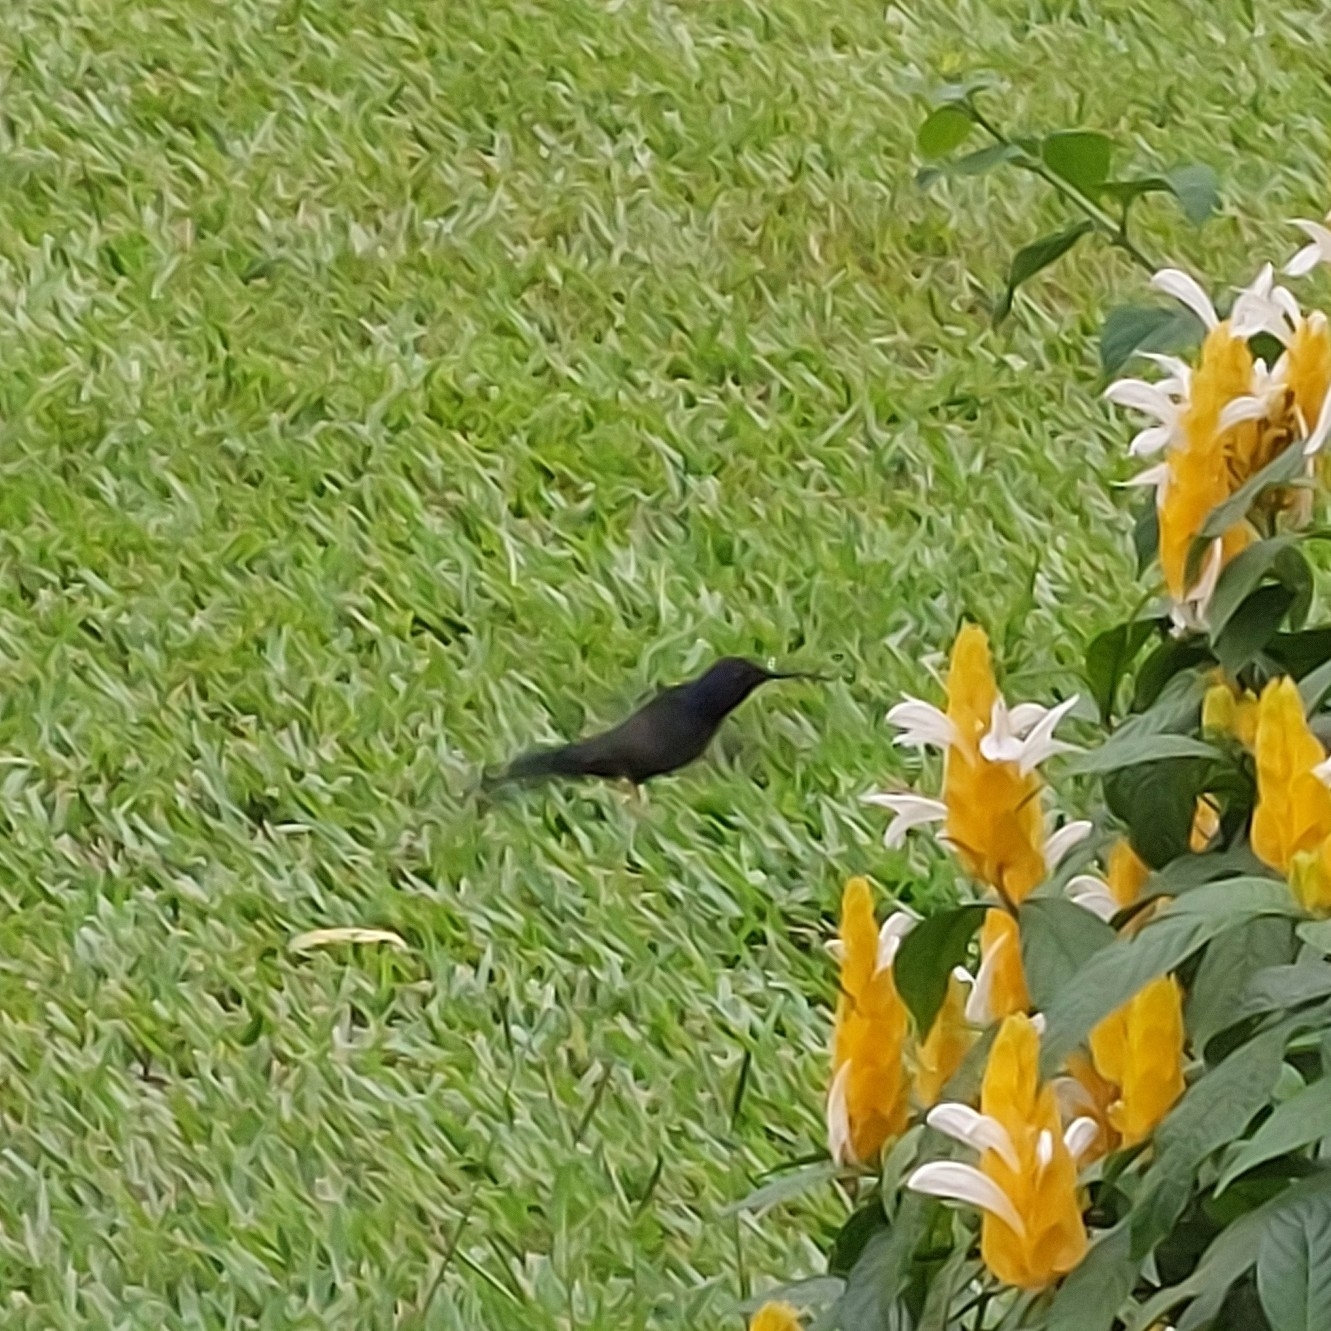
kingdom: Animalia
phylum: Chordata
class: Aves
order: Apodiformes
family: Trochilidae
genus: Eupetomena
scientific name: Eupetomena macroura
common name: Swallow-tailed hummingbird
